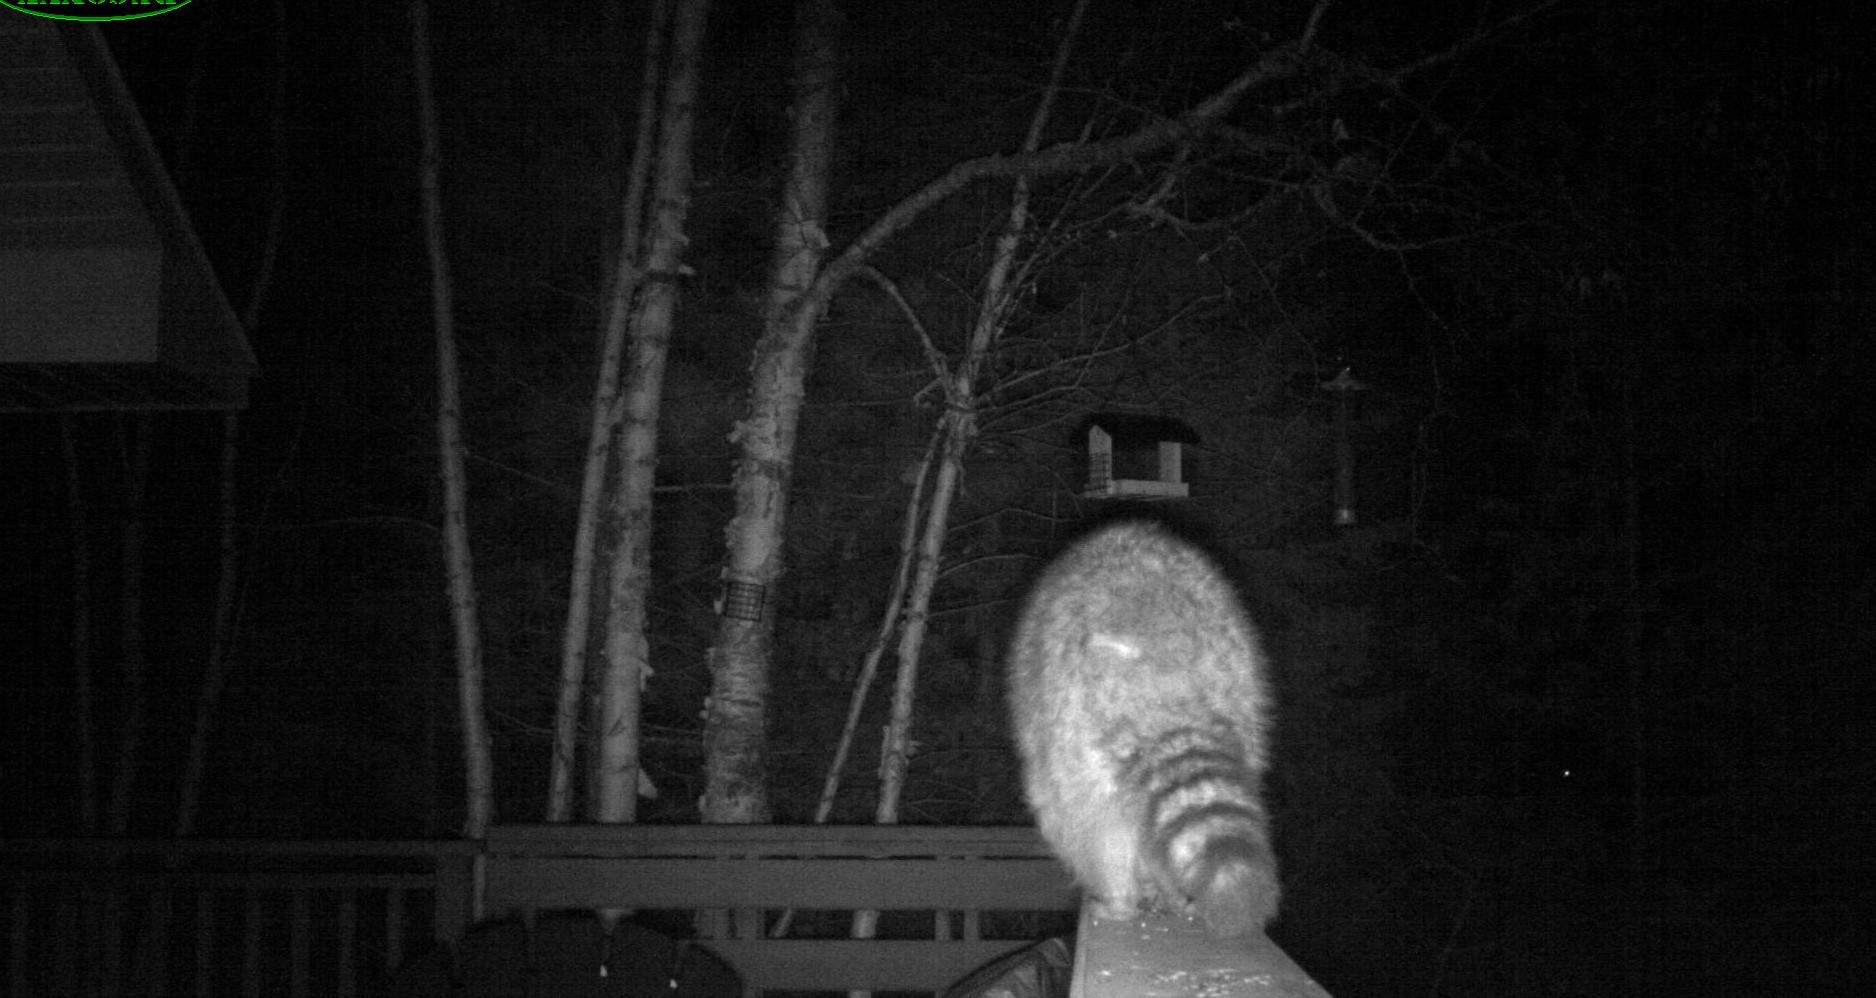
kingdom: Animalia
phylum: Chordata
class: Mammalia
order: Carnivora
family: Procyonidae
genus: Procyon
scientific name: Procyon lotor
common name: Raccoon
